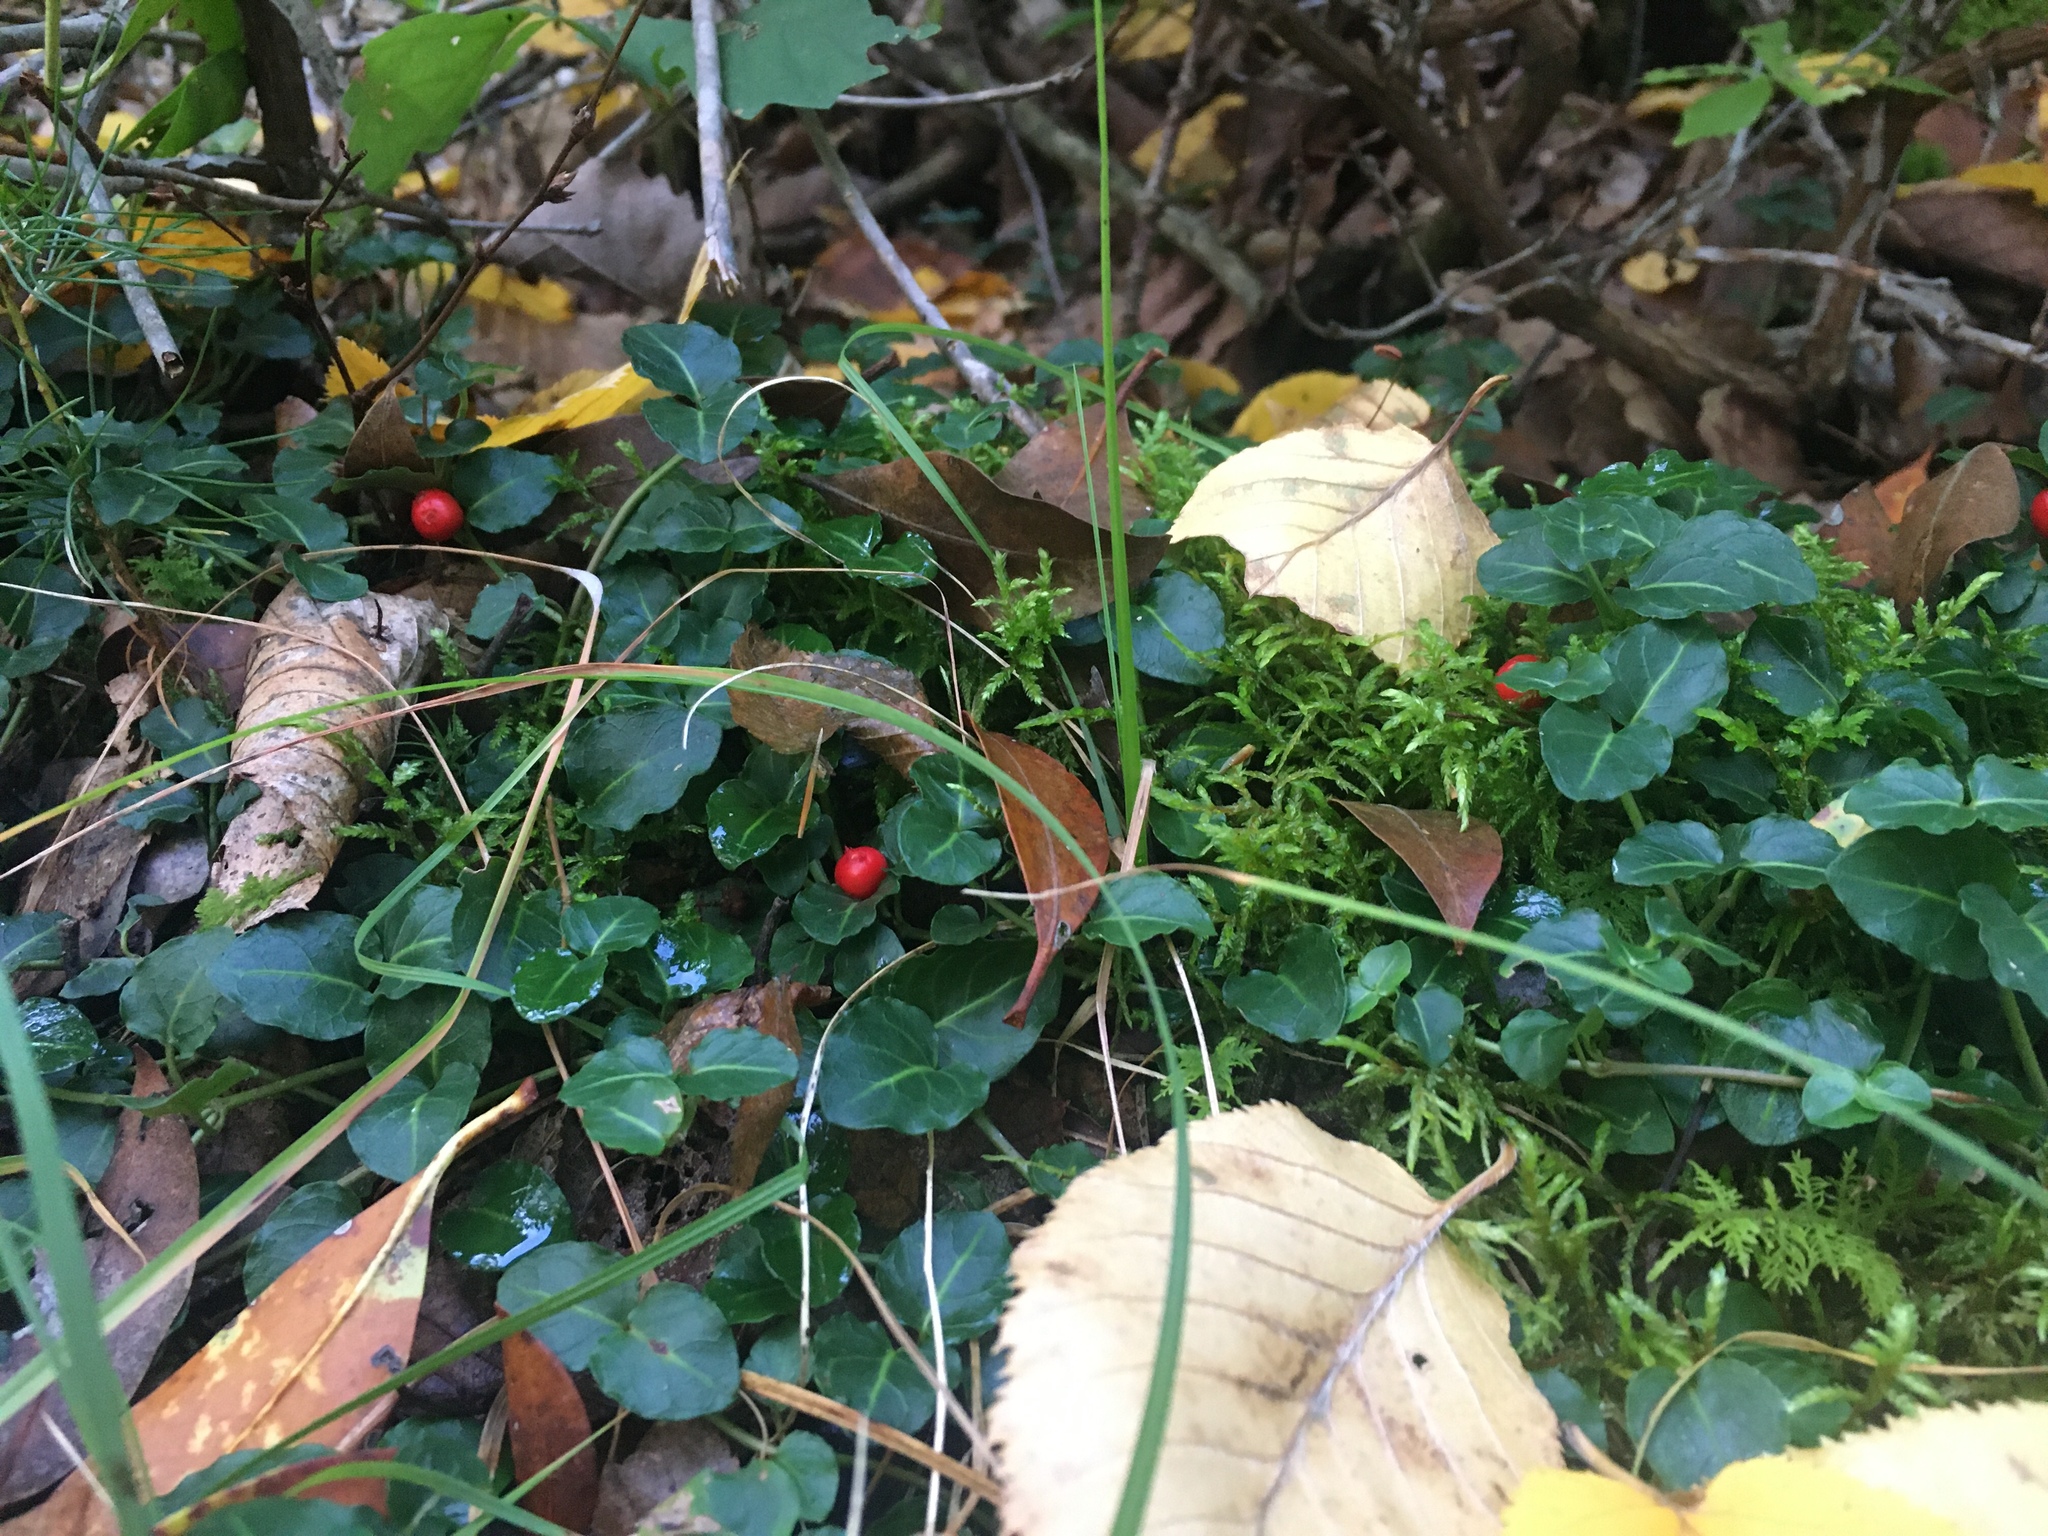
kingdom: Plantae
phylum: Tracheophyta
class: Magnoliopsida
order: Gentianales
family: Rubiaceae
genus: Mitchella
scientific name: Mitchella repens
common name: Partridge-berry
